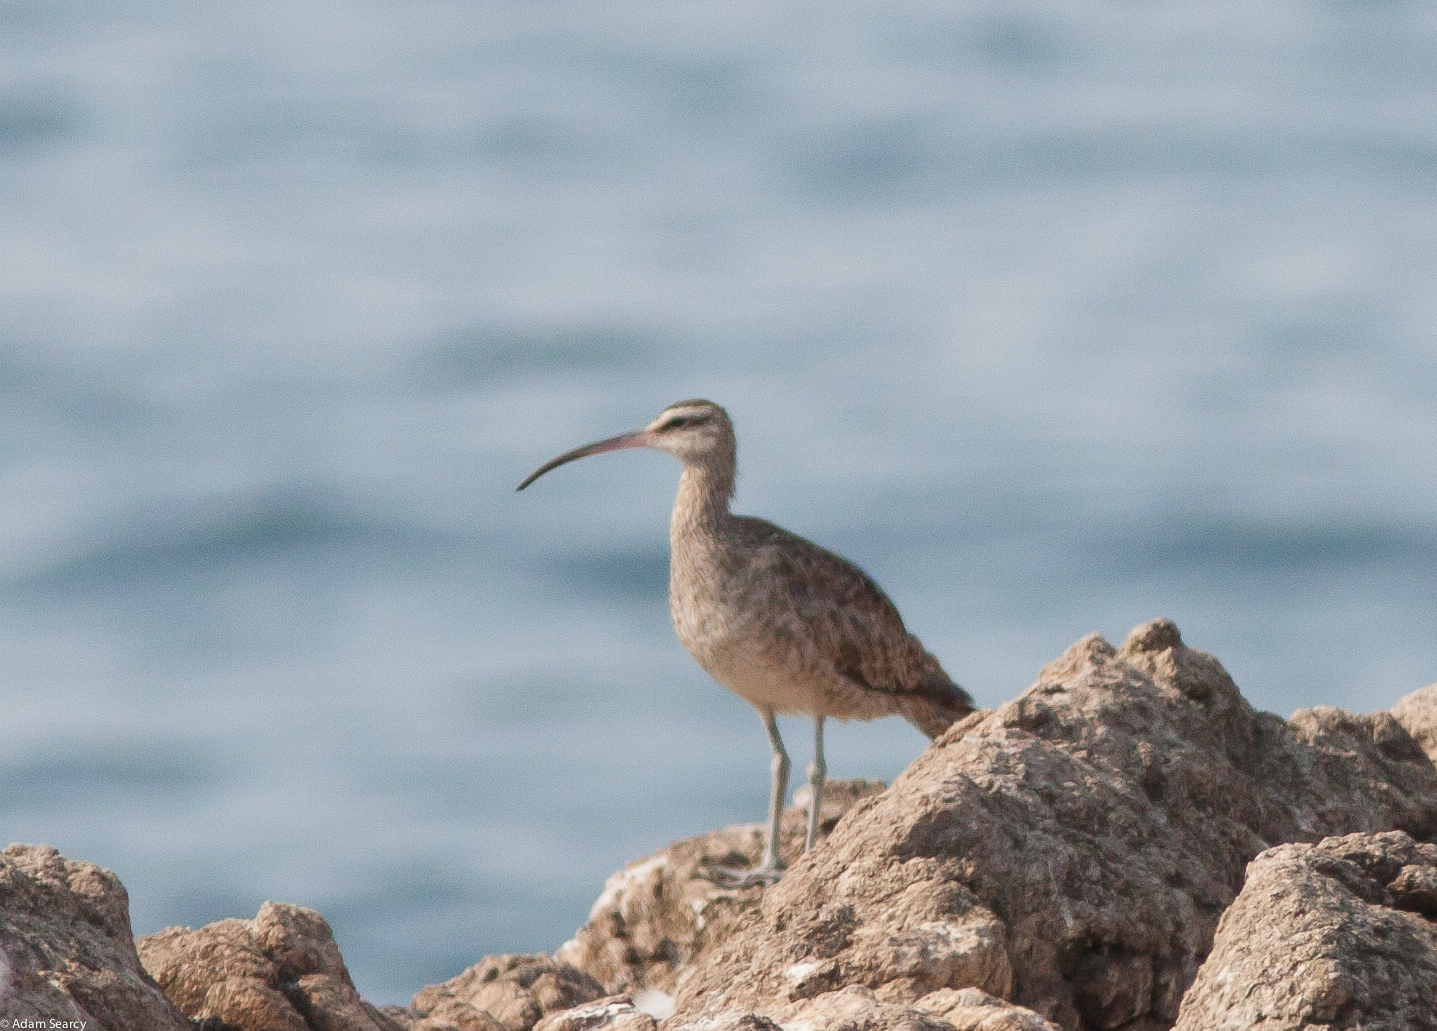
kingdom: Animalia
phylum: Chordata
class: Aves
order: Charadriiformes
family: Scolopacidae
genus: Numenius
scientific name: Numenius phaeopus
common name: Whimbrel
